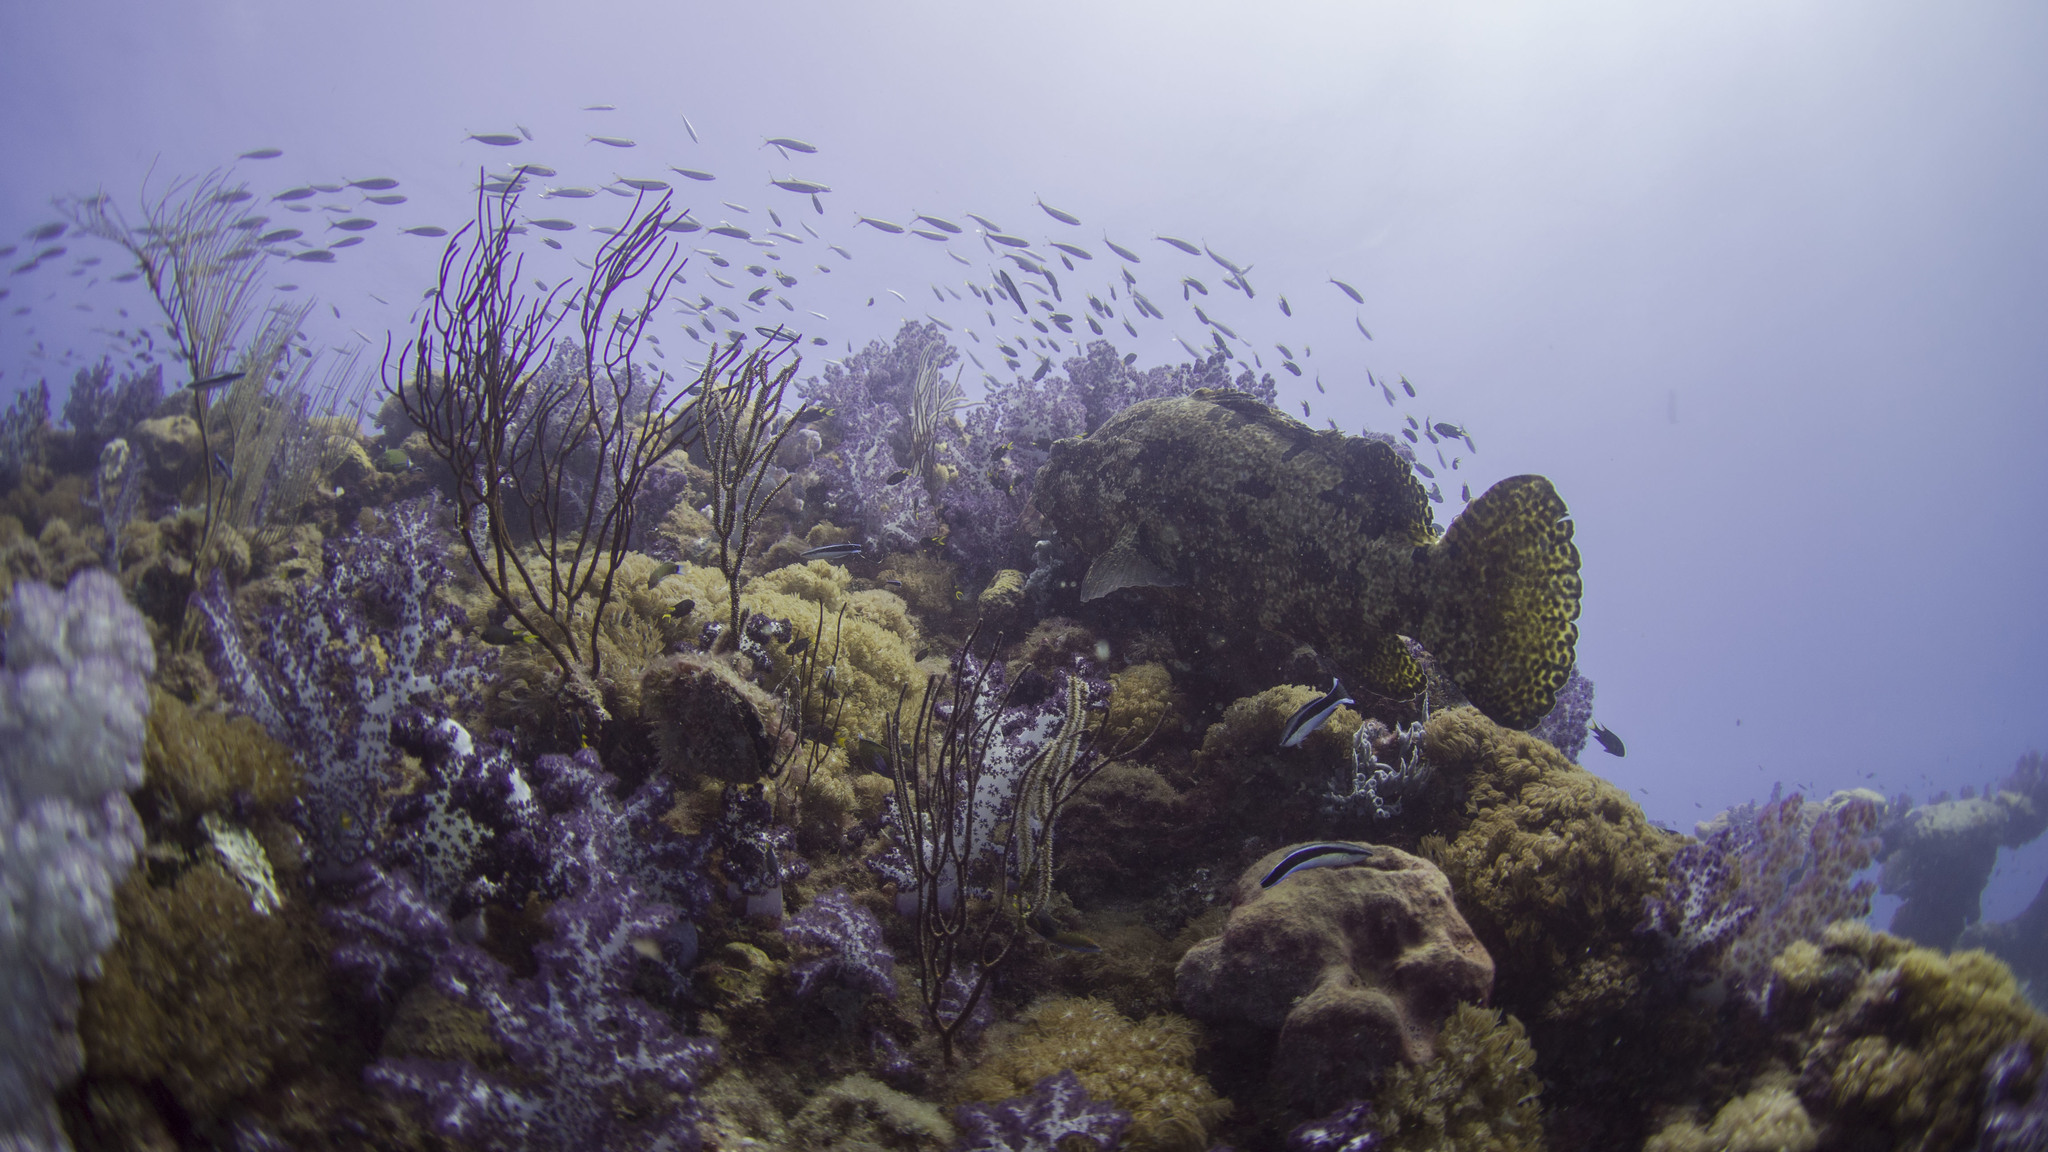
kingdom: Animalia
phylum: Chordata
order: Perciformes
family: Serranidae
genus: Epinephelus
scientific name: Epinephelus fuscoguttatus
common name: Brown-marbled grouper
